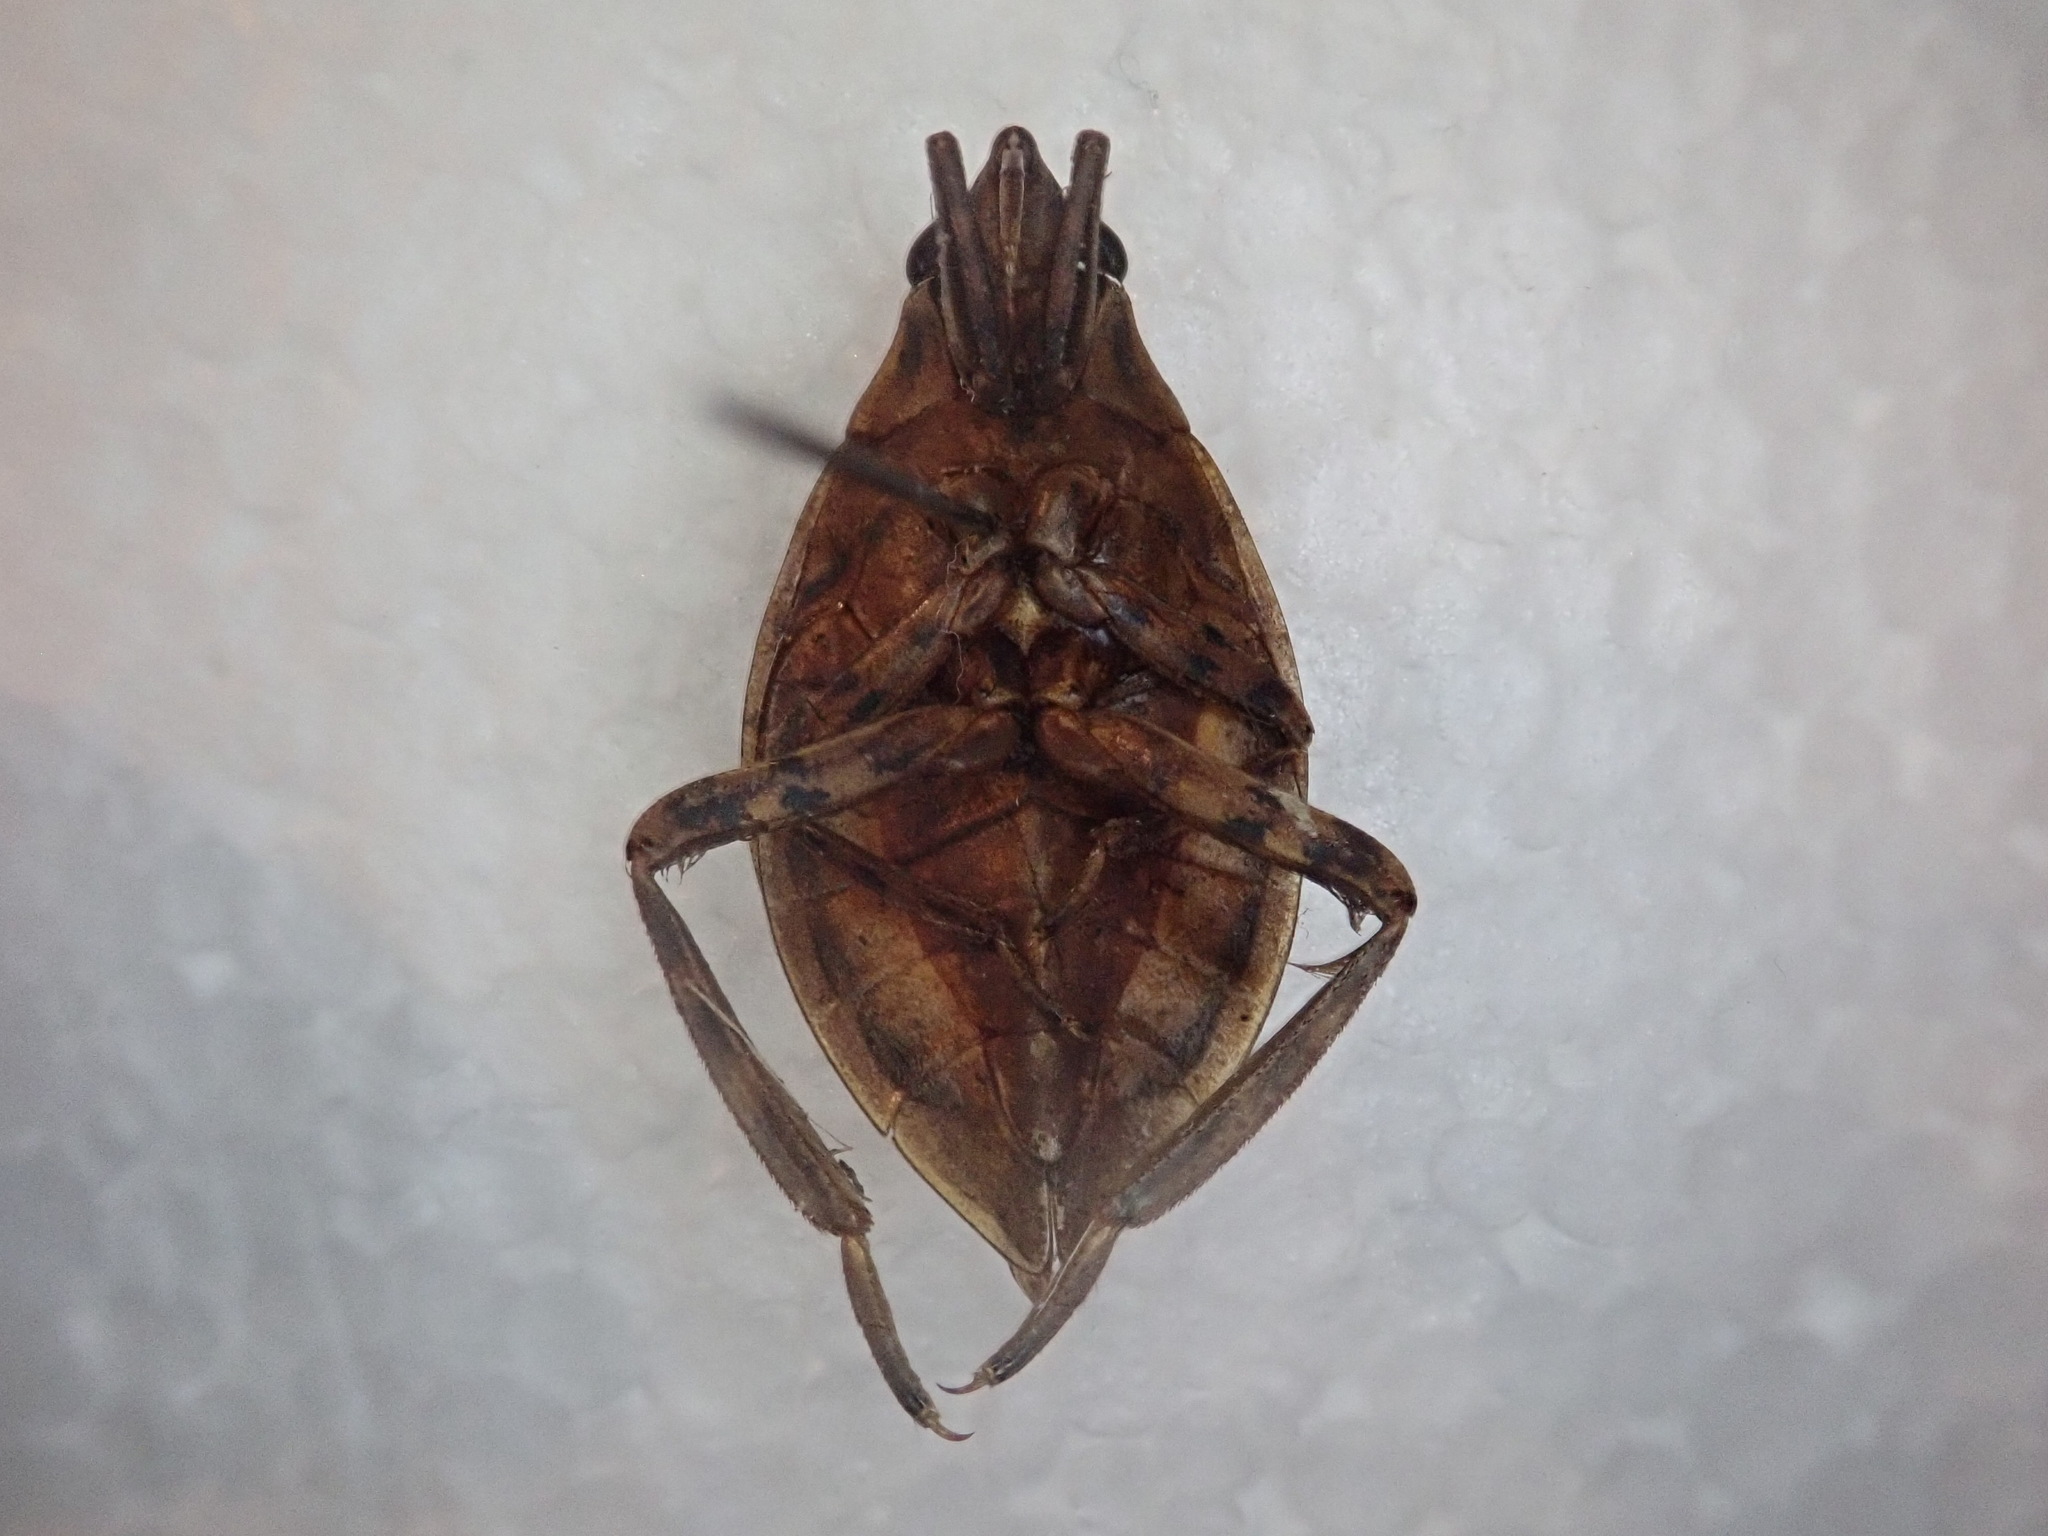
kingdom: Animalia
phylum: Arthropoda
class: Insecta
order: Hemiptera
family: Belostomatidae
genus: Belostoma
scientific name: Belostoma flumineum
